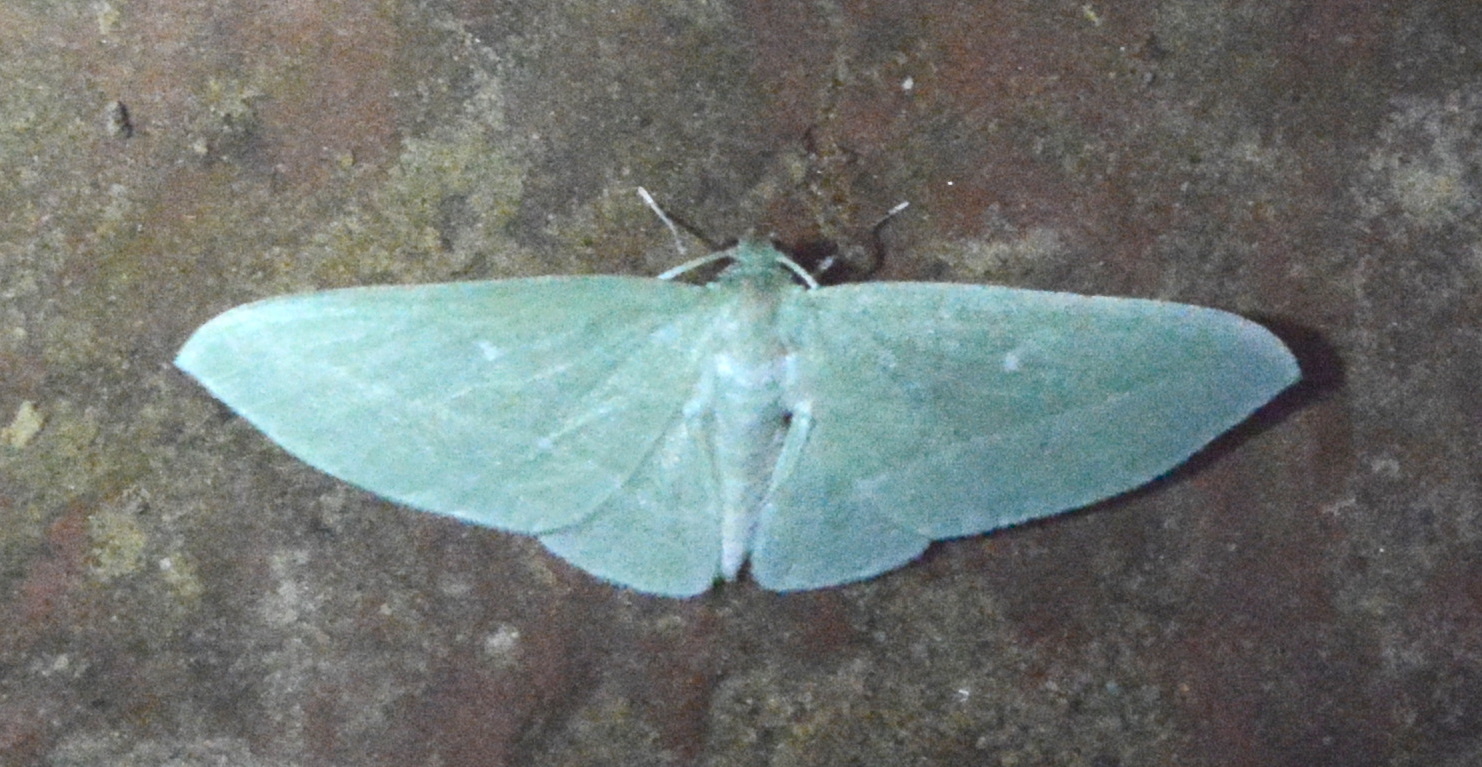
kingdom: Animalia
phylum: Arthropoda
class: Insecta
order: Lepidoptera
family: Geometridae
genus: Dyspteris
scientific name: Dyspteris abortivaria
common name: Bad-wing
